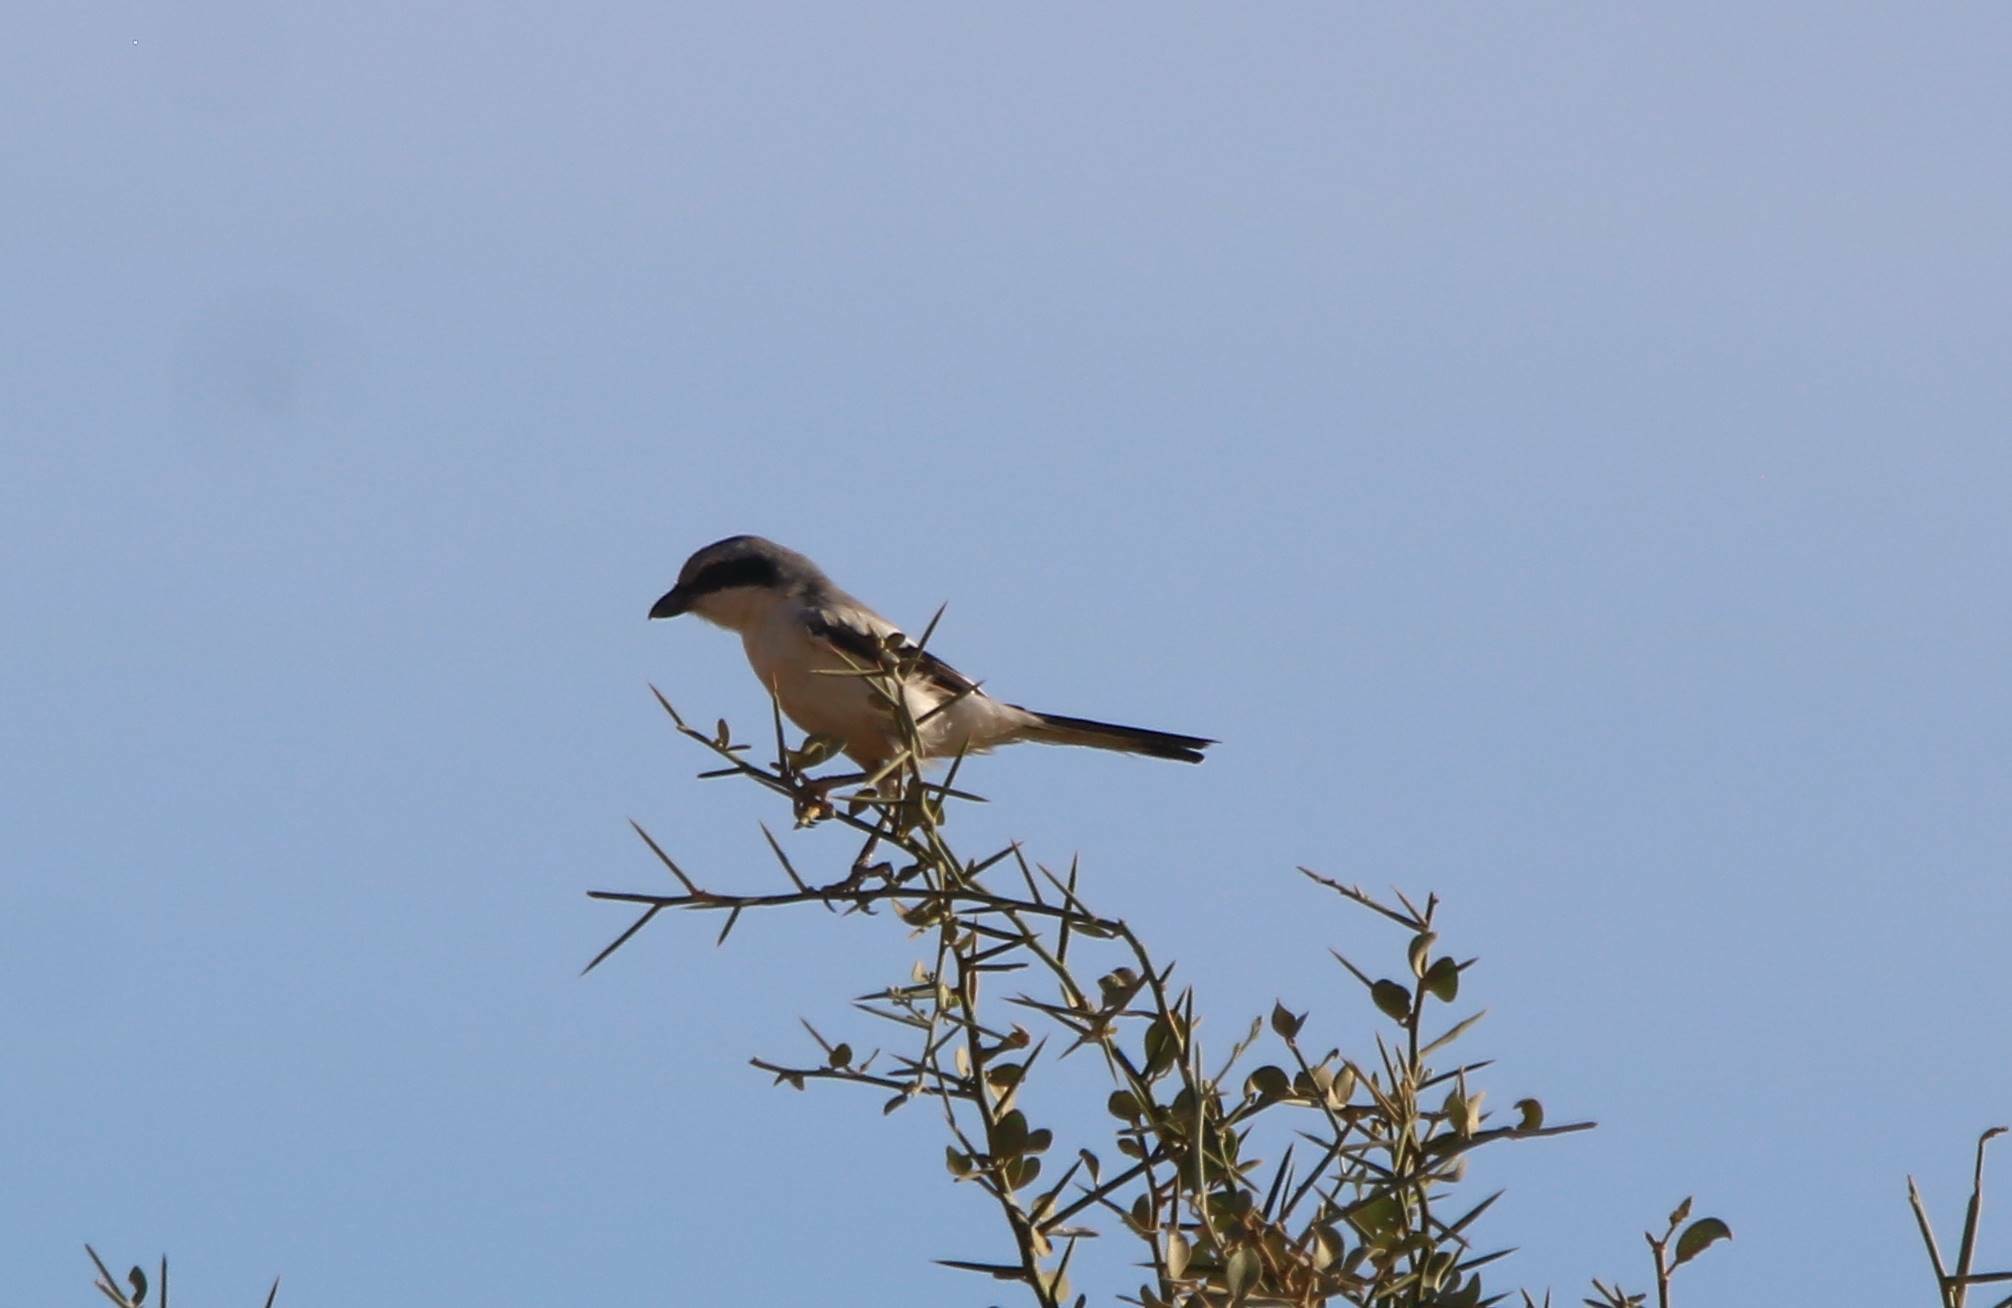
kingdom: Animalia
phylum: Chordata
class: Aves
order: Passeriformes
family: Laniidae
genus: Lanius
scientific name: Lanius excubitor
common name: Great grey shrike
